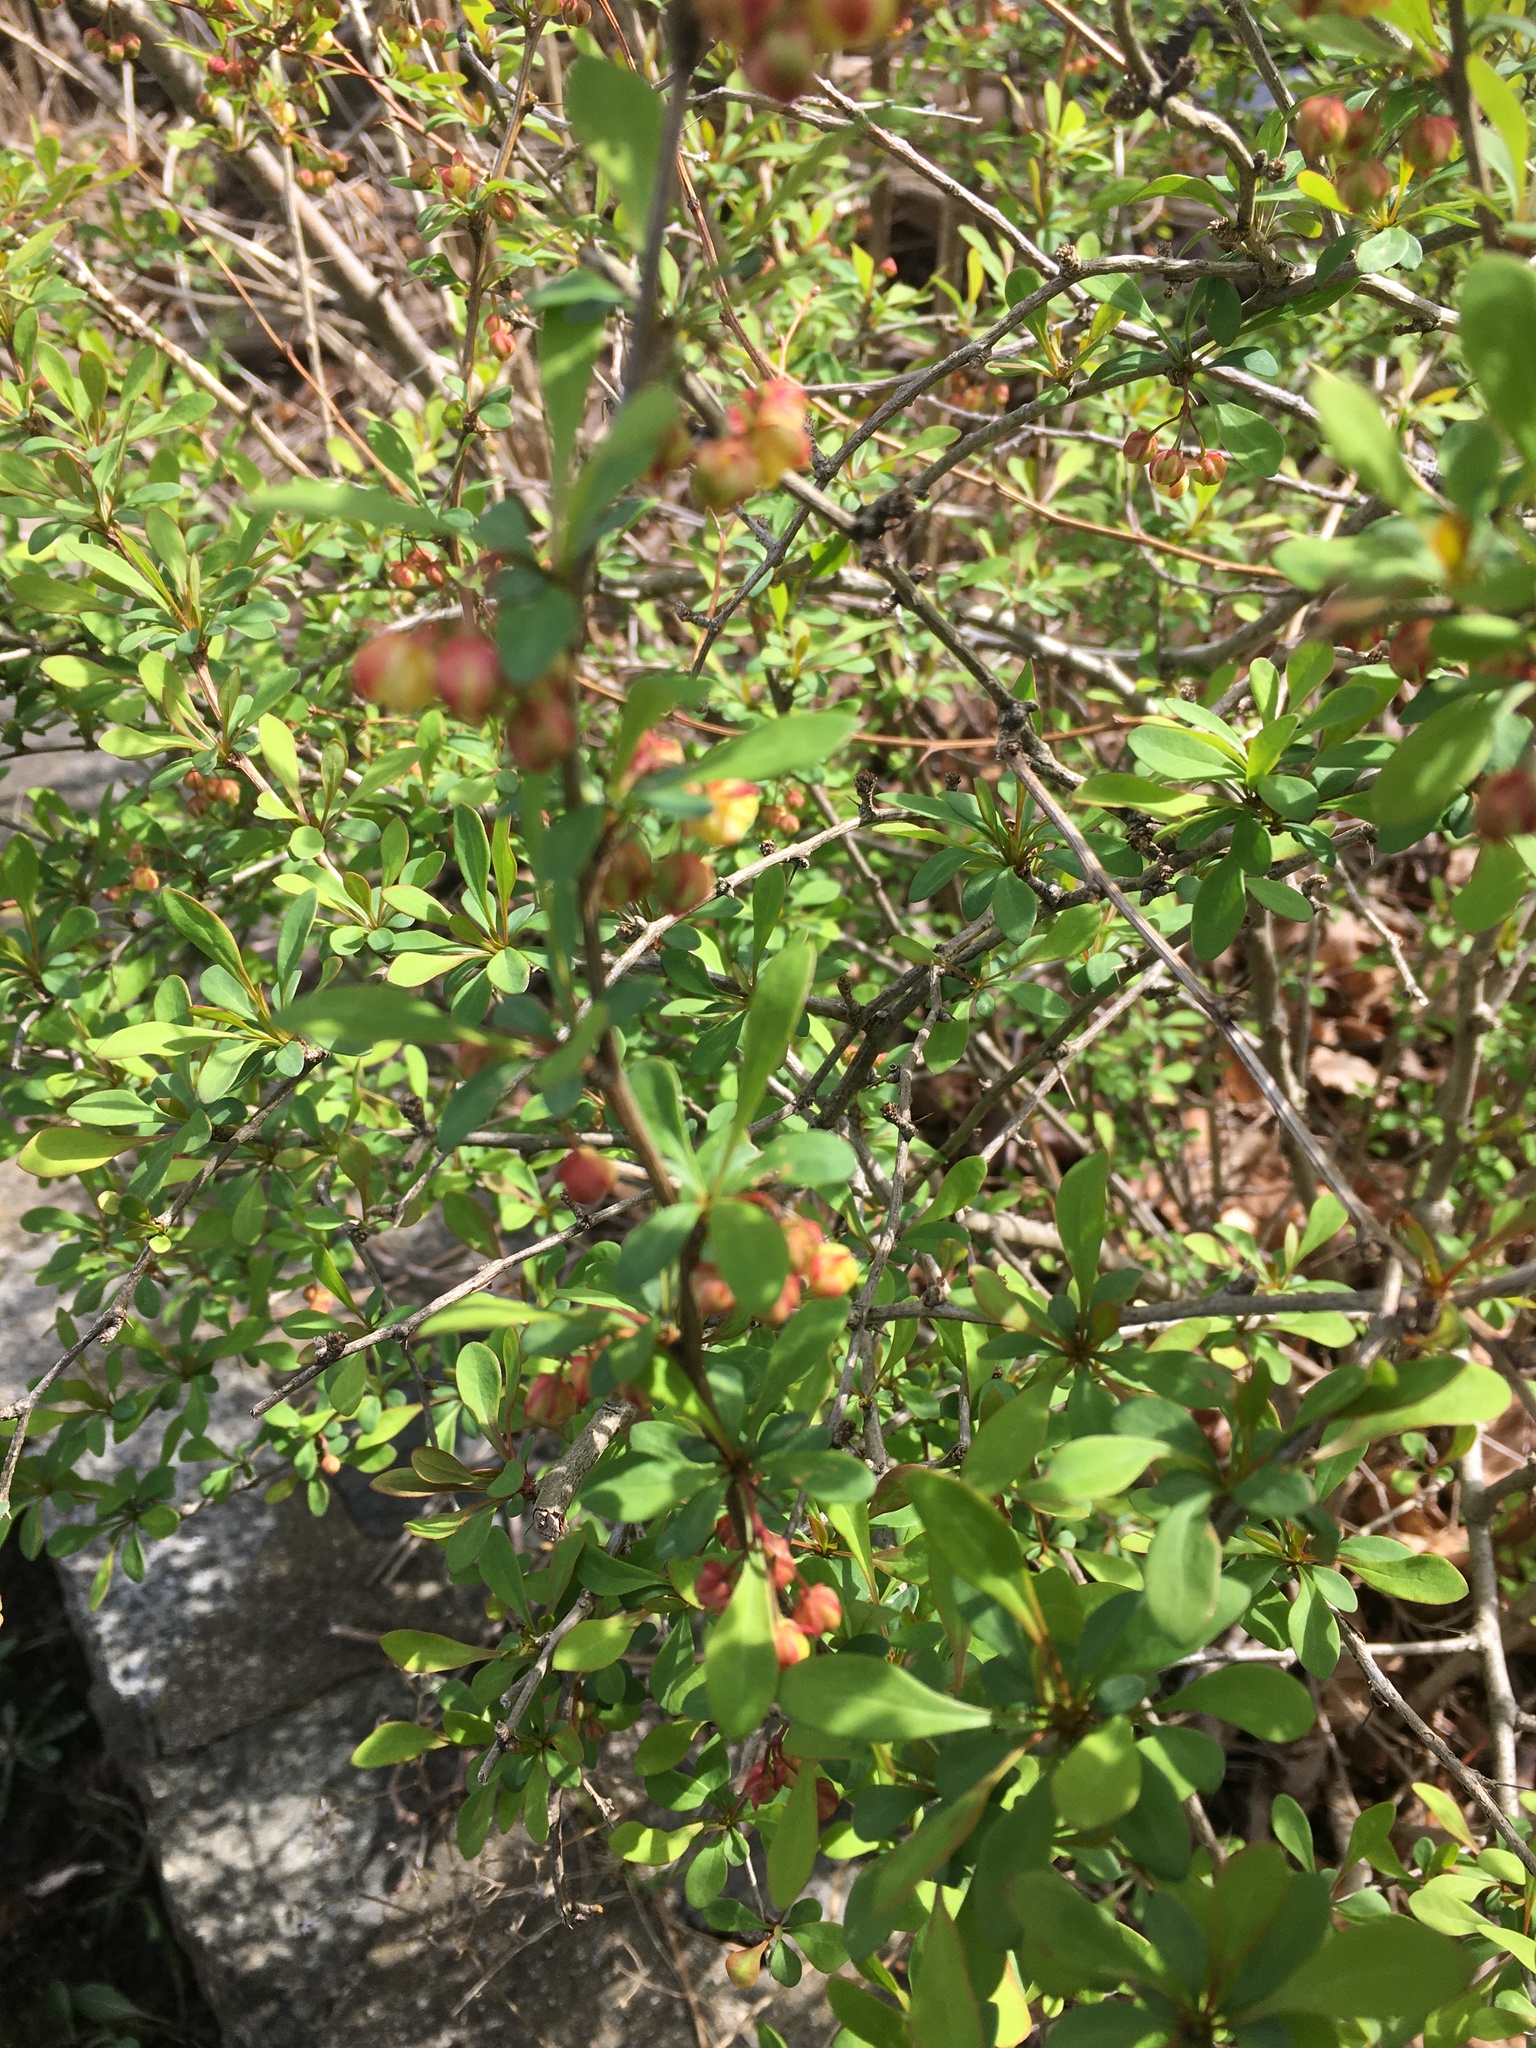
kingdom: Plantae
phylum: Tracheophyta
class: Magnoliopsida
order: Ranunculales
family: Berberidaceae
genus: Berberis
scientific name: Berberis thunbergii
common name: Japanese barberry
